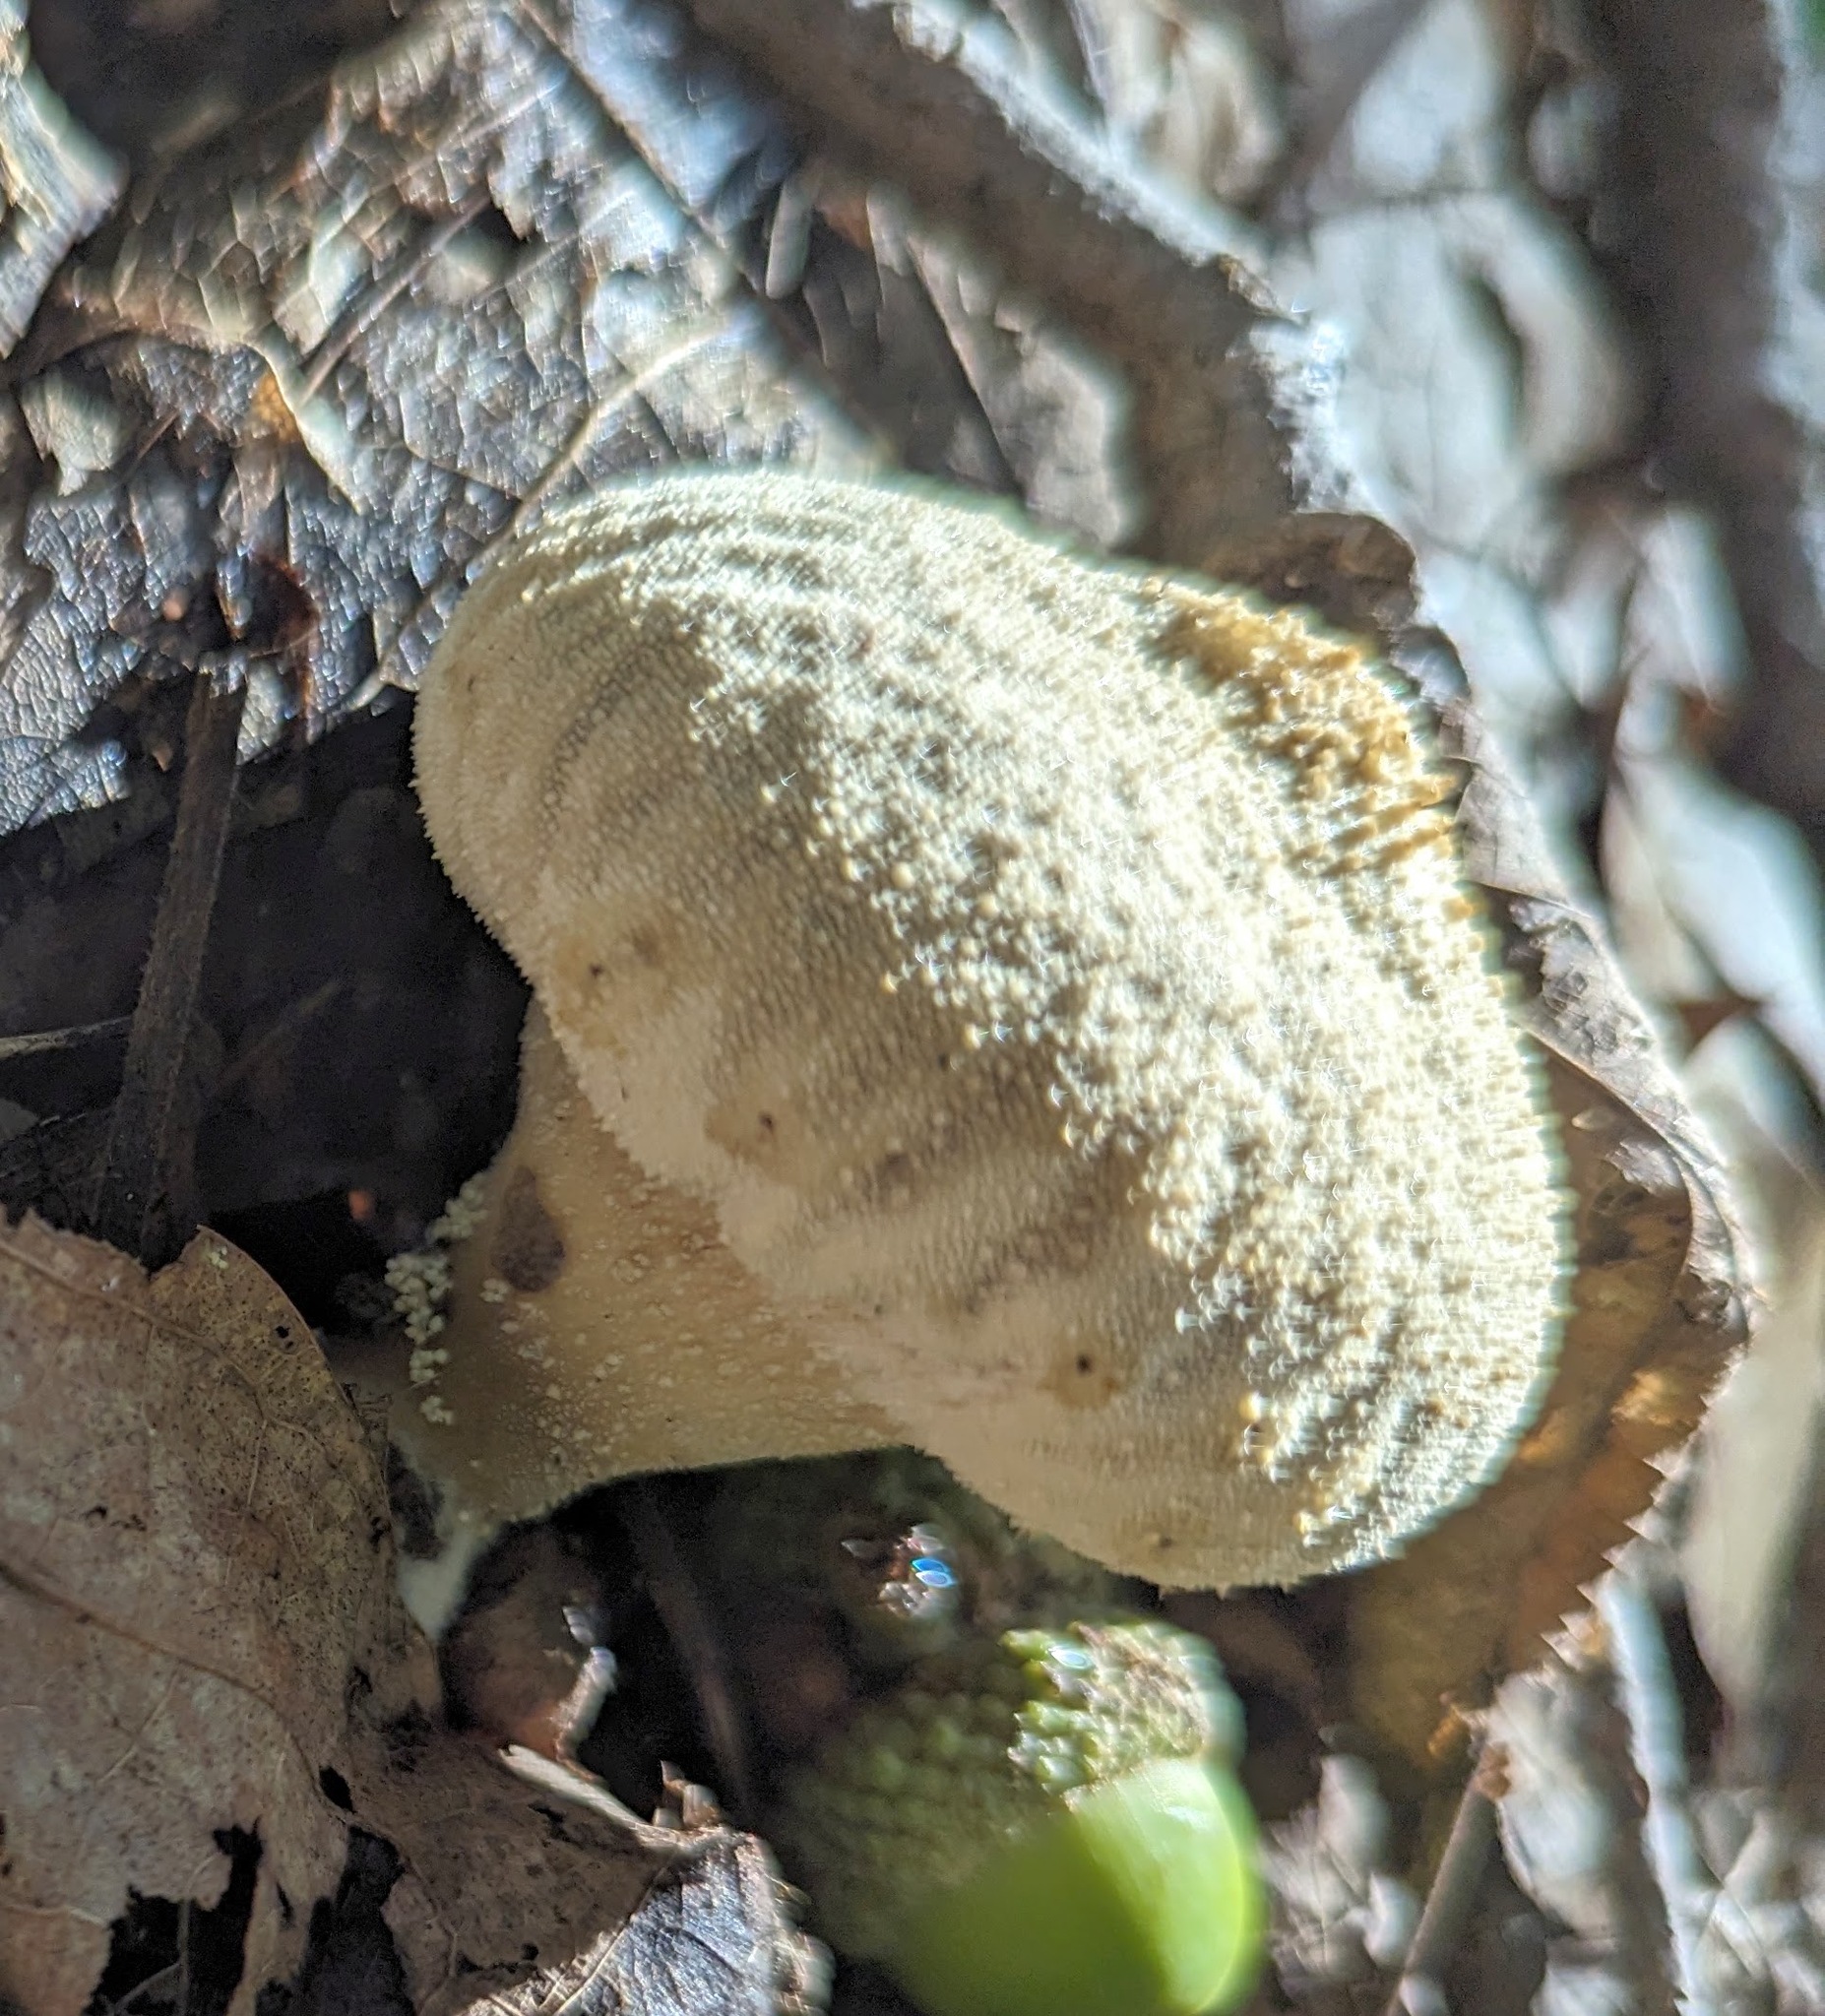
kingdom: Fungi
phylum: Basidiomycota
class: Agaricomycetes
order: Agaricales
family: Lycoperdaceae
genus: Lycoperdon
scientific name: Lycoperdon perlatum
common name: Common puffball
